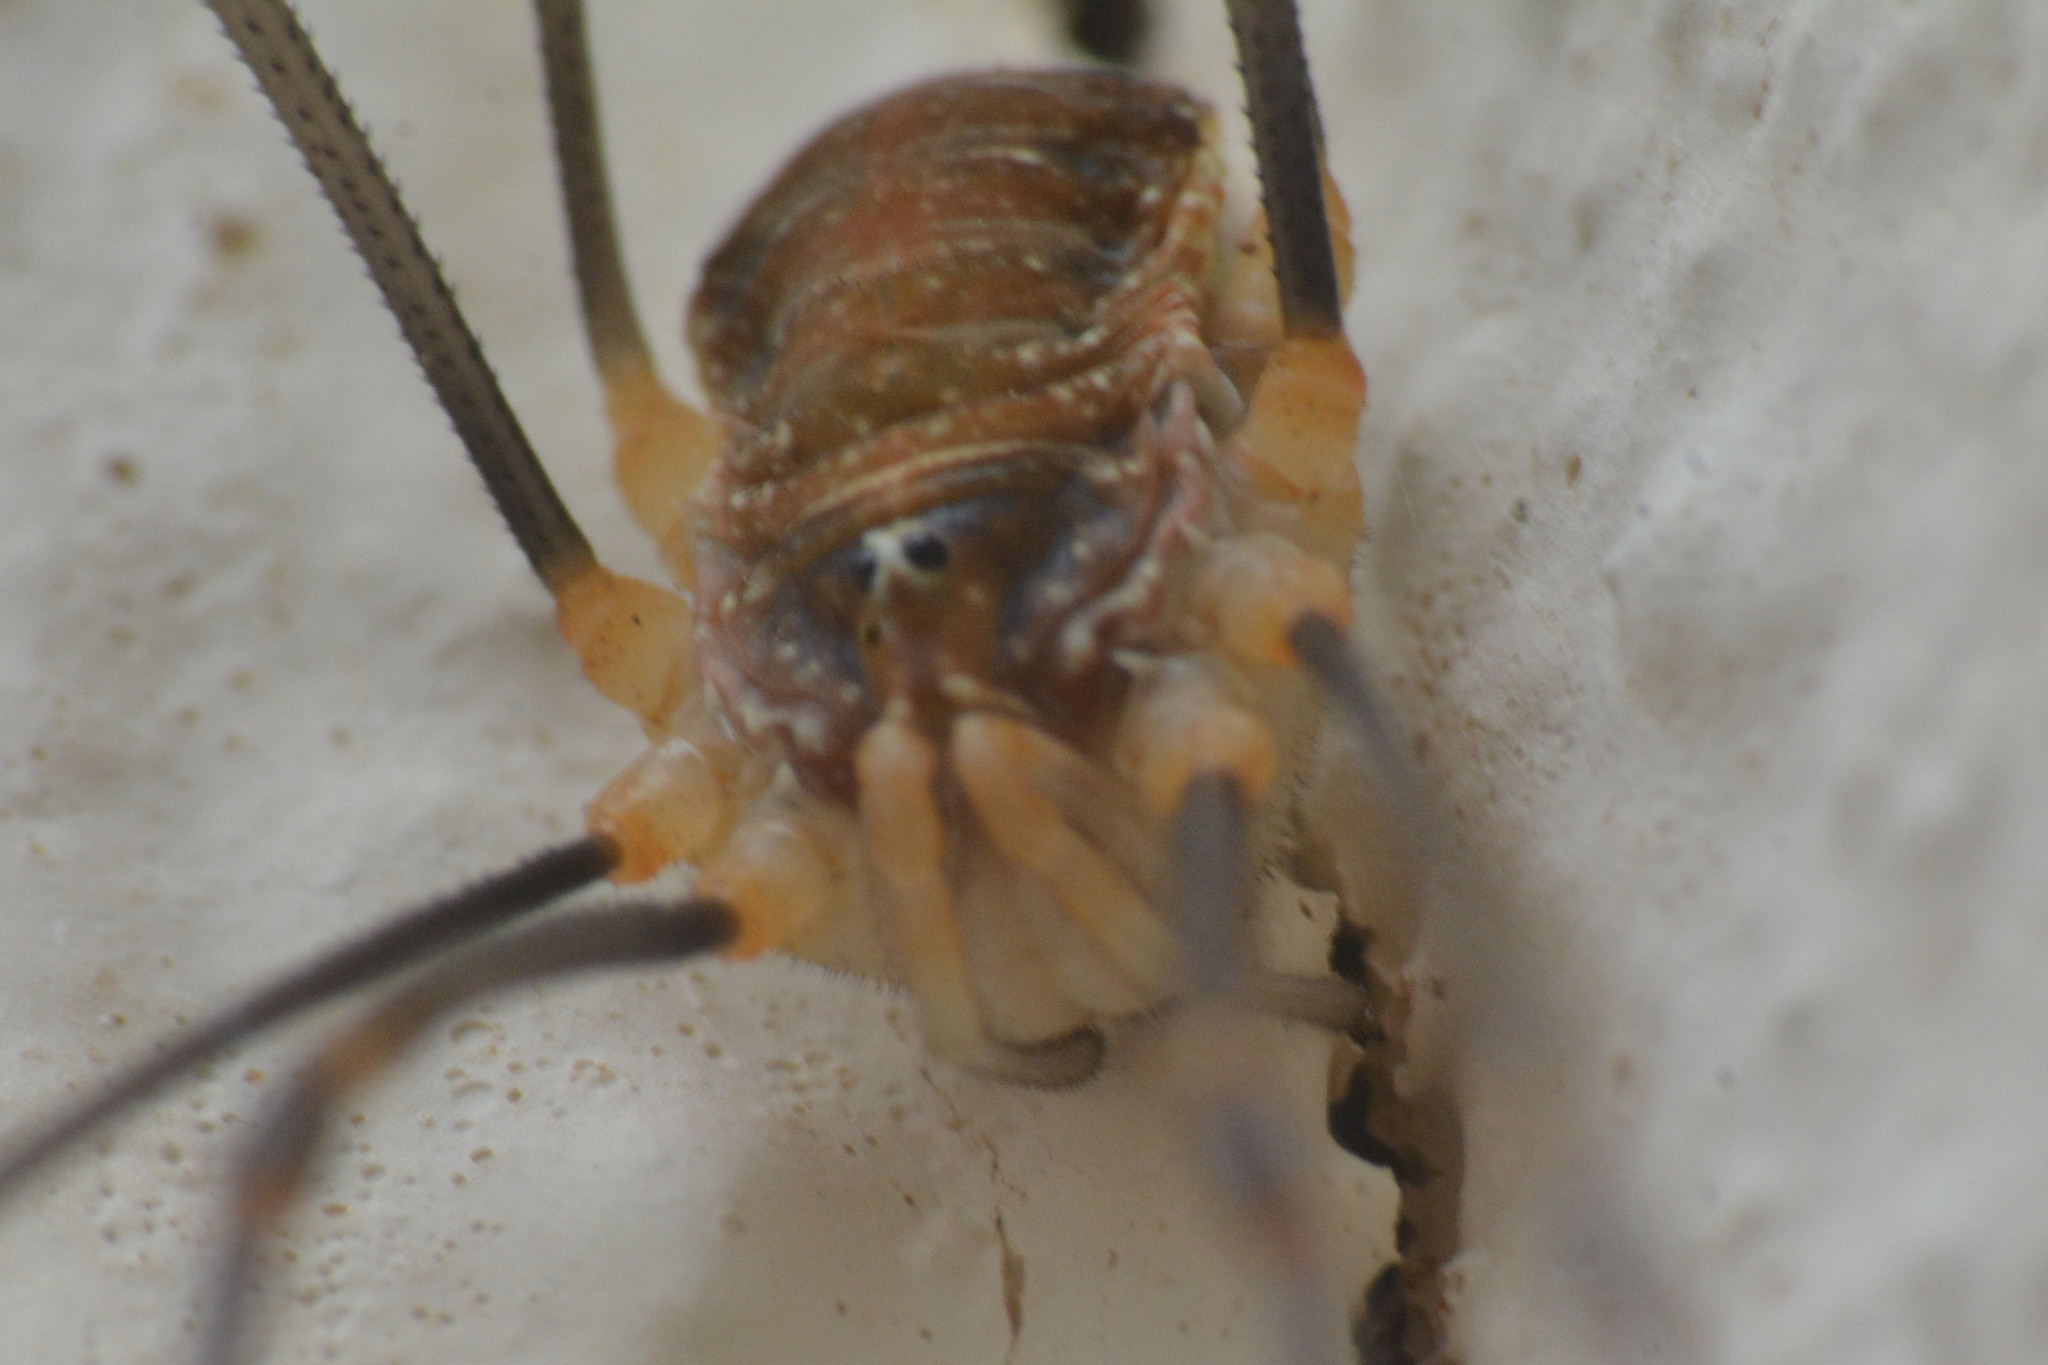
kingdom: Animalia
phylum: Arthropoda
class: Arachnida
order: Opiliones
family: Phalangiidae
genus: Opilio
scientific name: Opilio canestrinii
